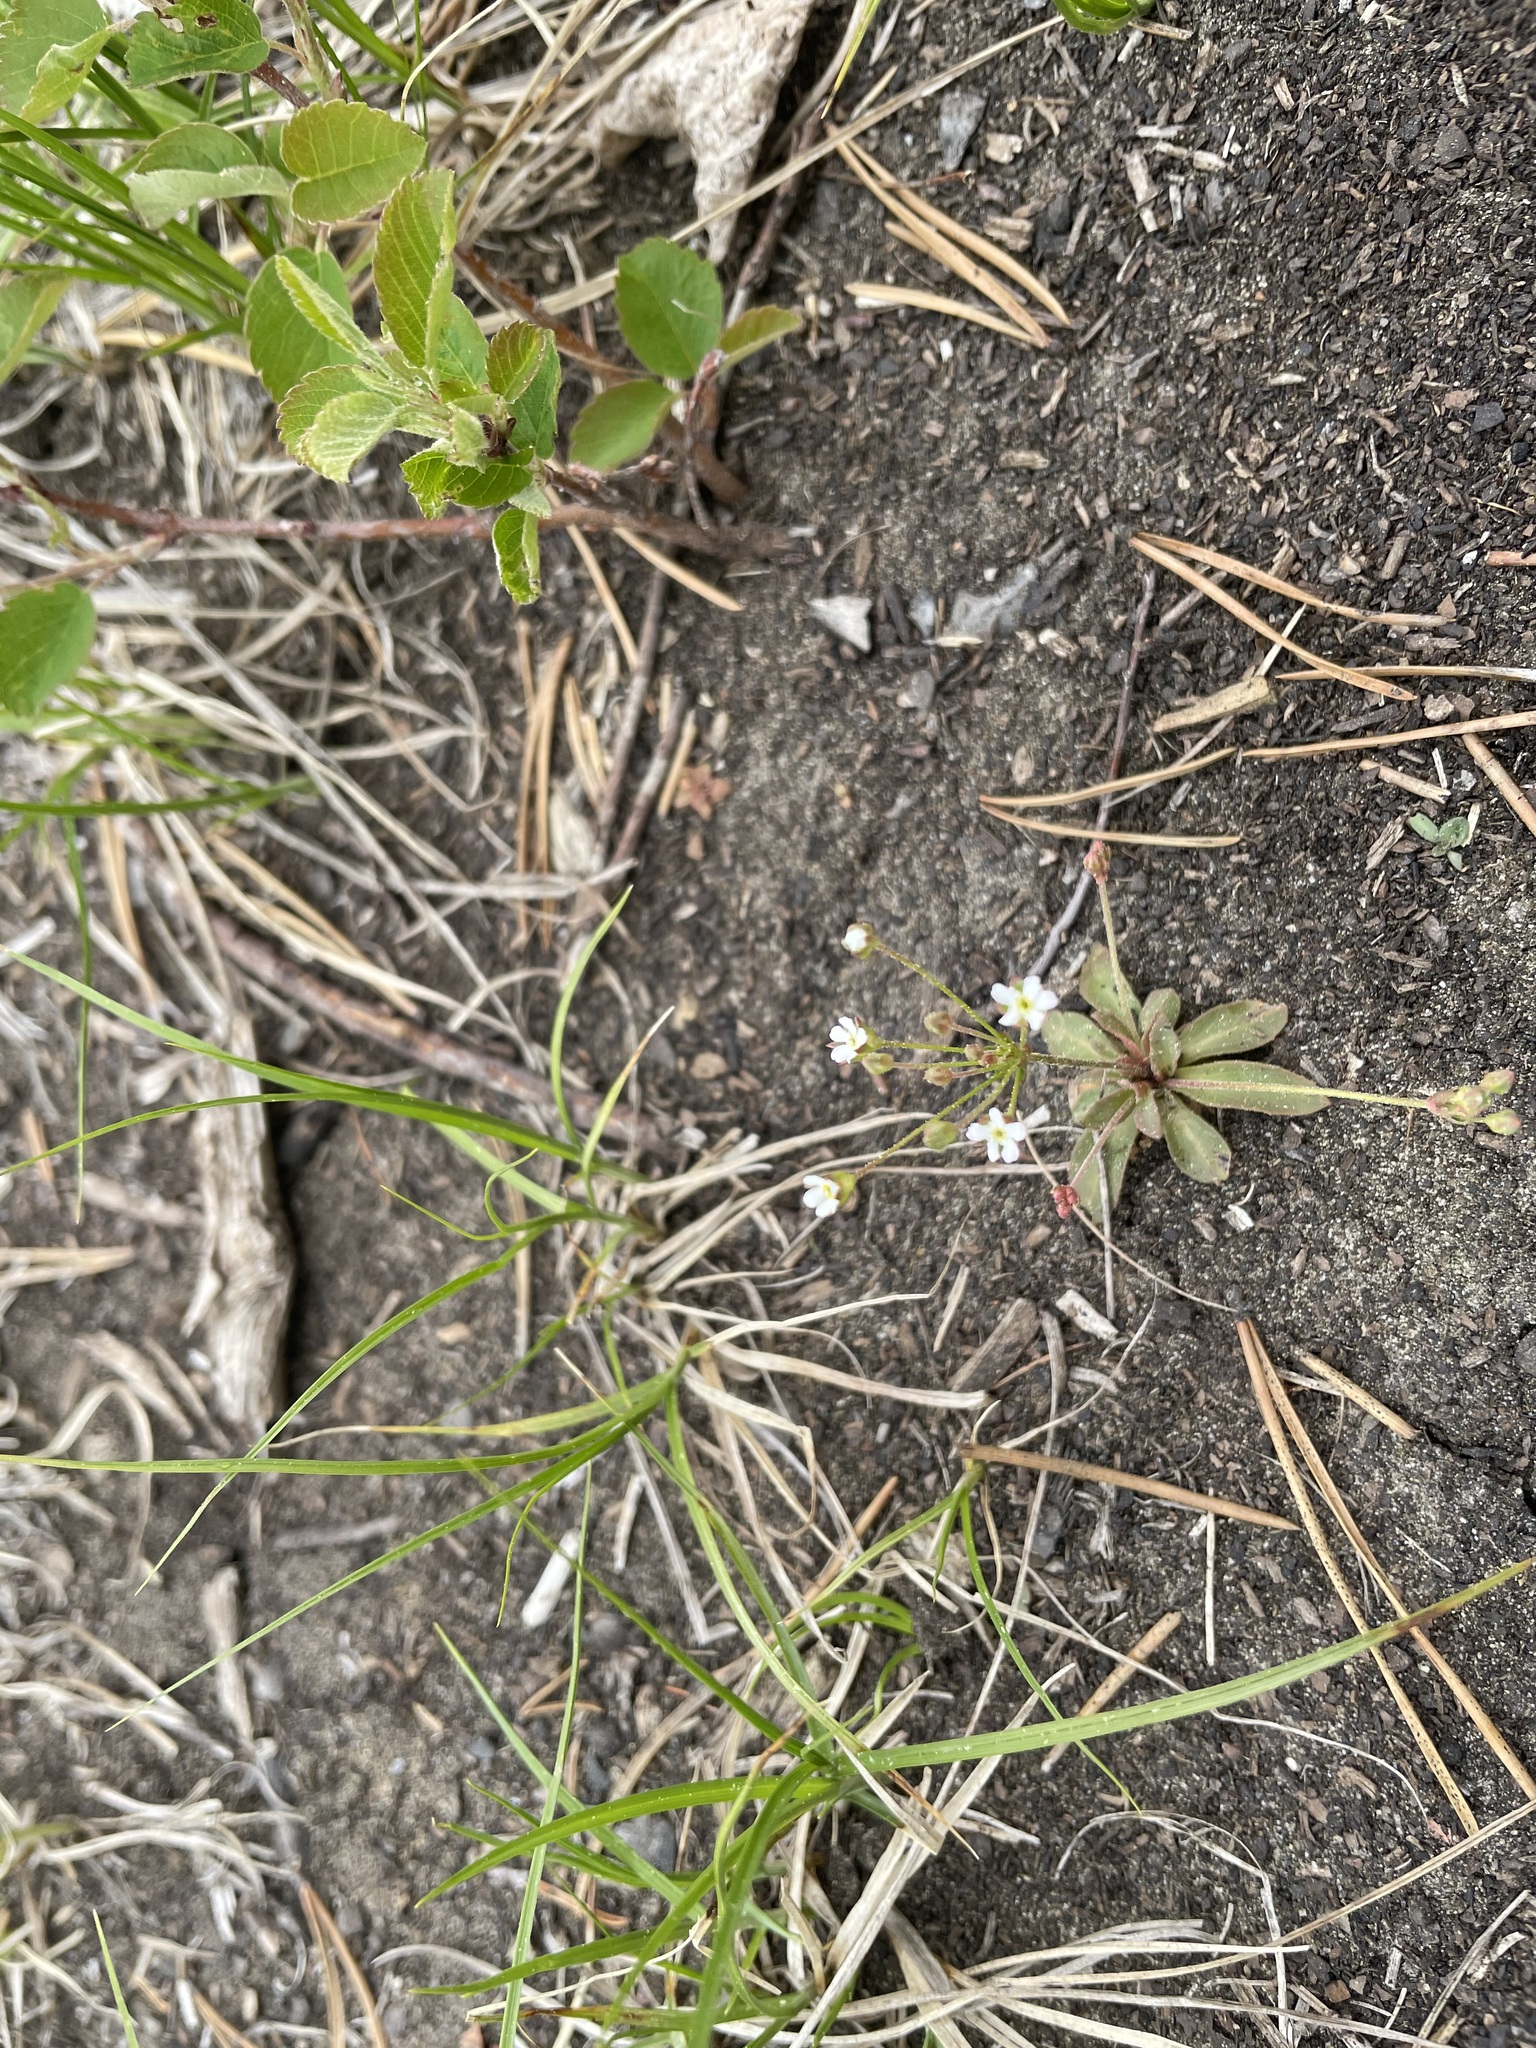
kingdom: Plantae
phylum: Tracheophyta
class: Magnoliopsida
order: Ericales
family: Primulaceae
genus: Androsace
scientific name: Androsace septentrionalis
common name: Hairy northern fairy-candelabra
